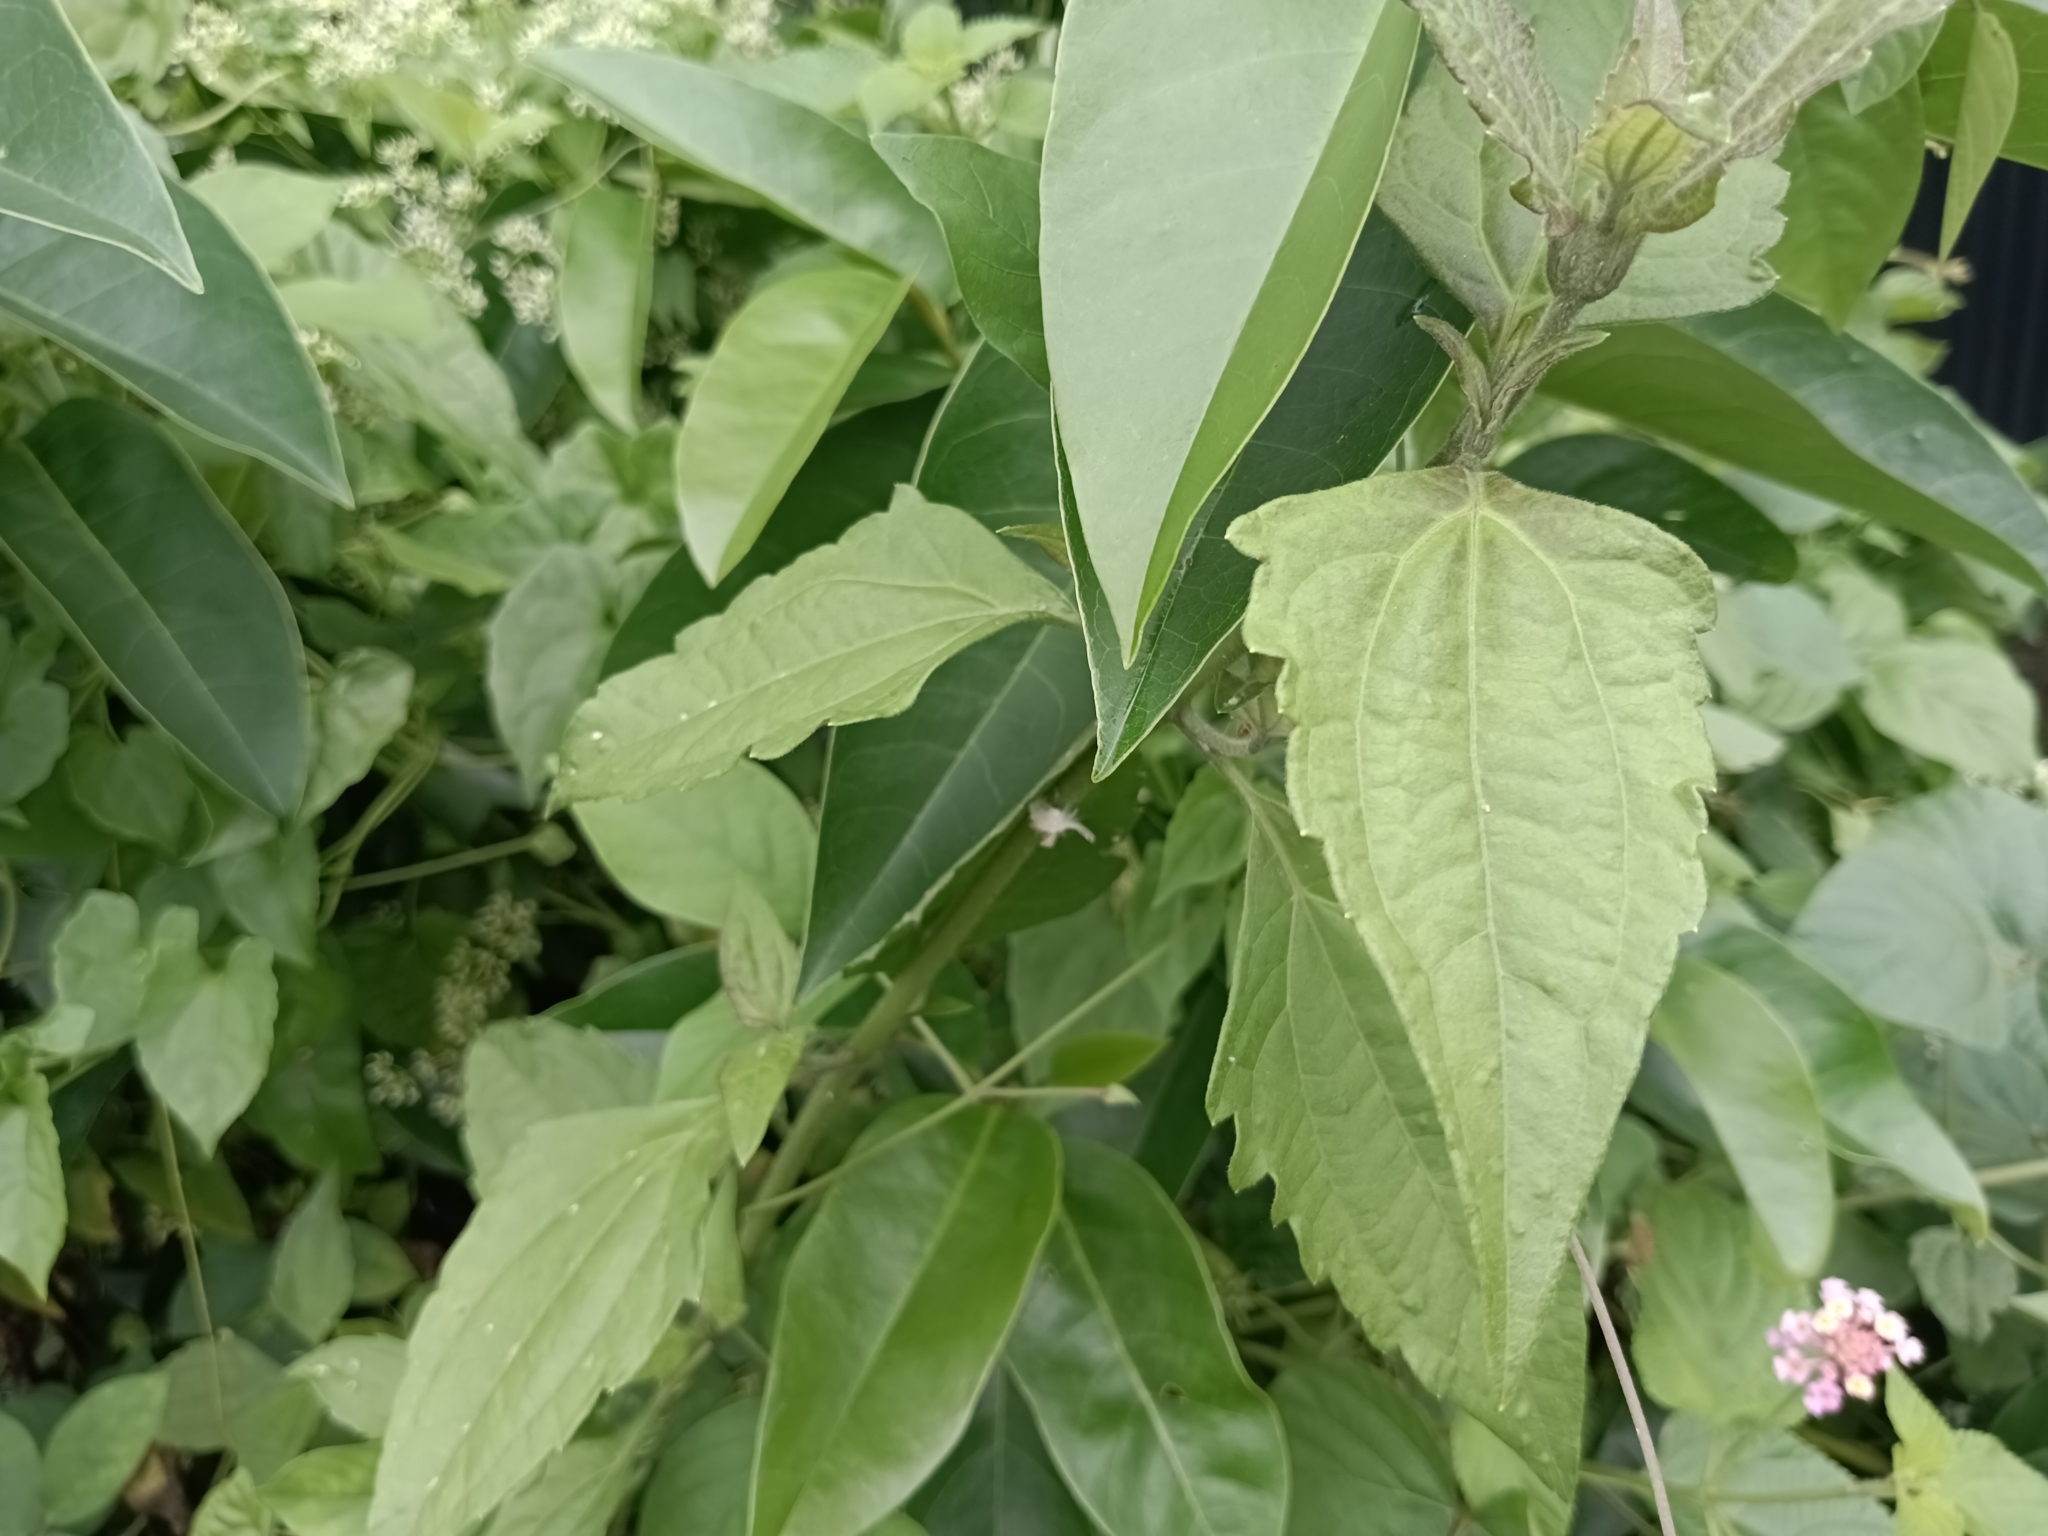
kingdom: Plantae
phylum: Tracheophyta
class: Magnoliopsida
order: Asterales
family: Asteraceae
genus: Chromolaena
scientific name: Chromolaena odorata
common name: Siamweed
